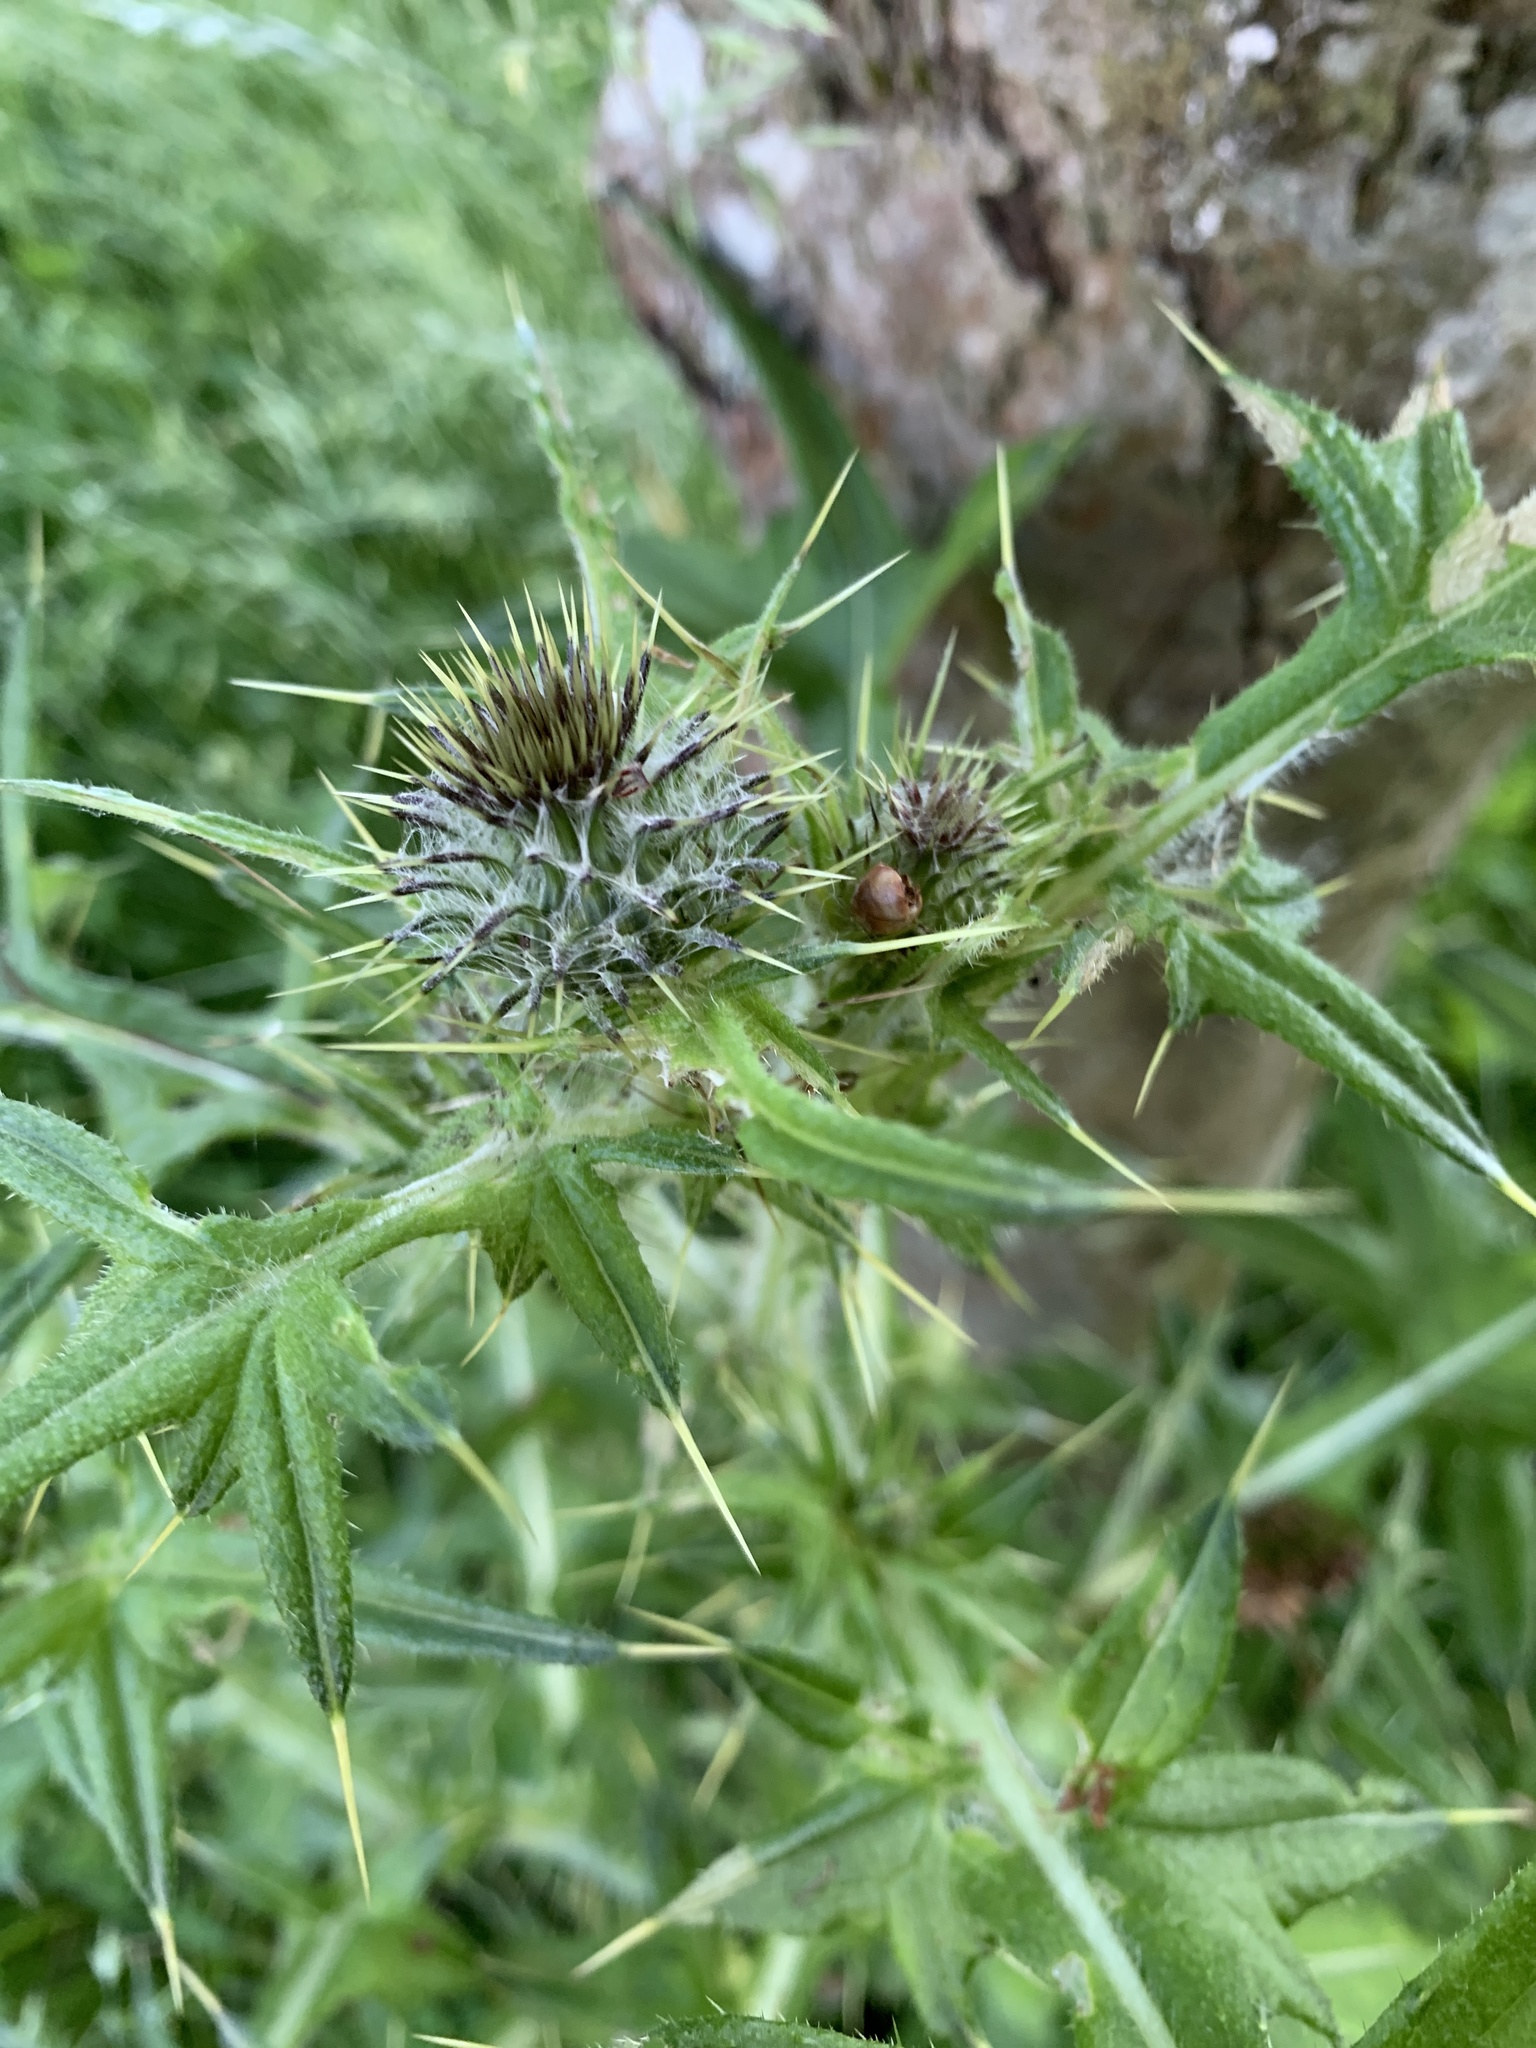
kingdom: Plantae
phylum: Tracheophyta
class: Magnoliopsida
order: Asterales
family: Asteraceae
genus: Cirsium
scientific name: Cirsium vulgare
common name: Bull thistle
